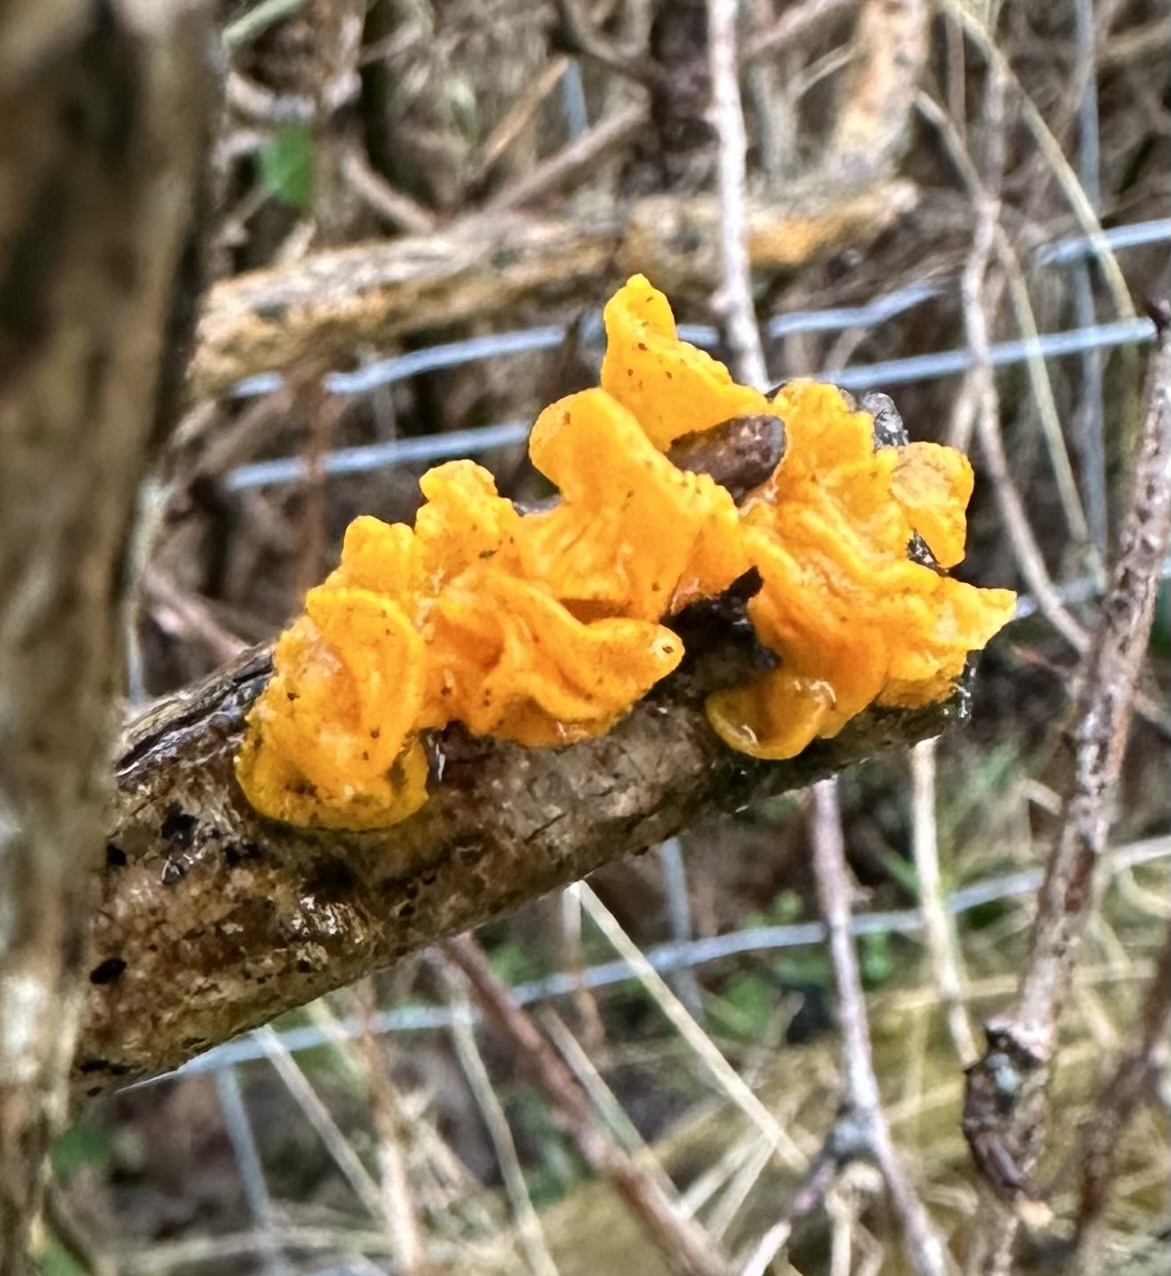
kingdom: Fungi
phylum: Basidiomycota
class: Tremellomycetes
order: Tremellales
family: Tremellaceae
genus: Tremella
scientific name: Tremella mesenterica
